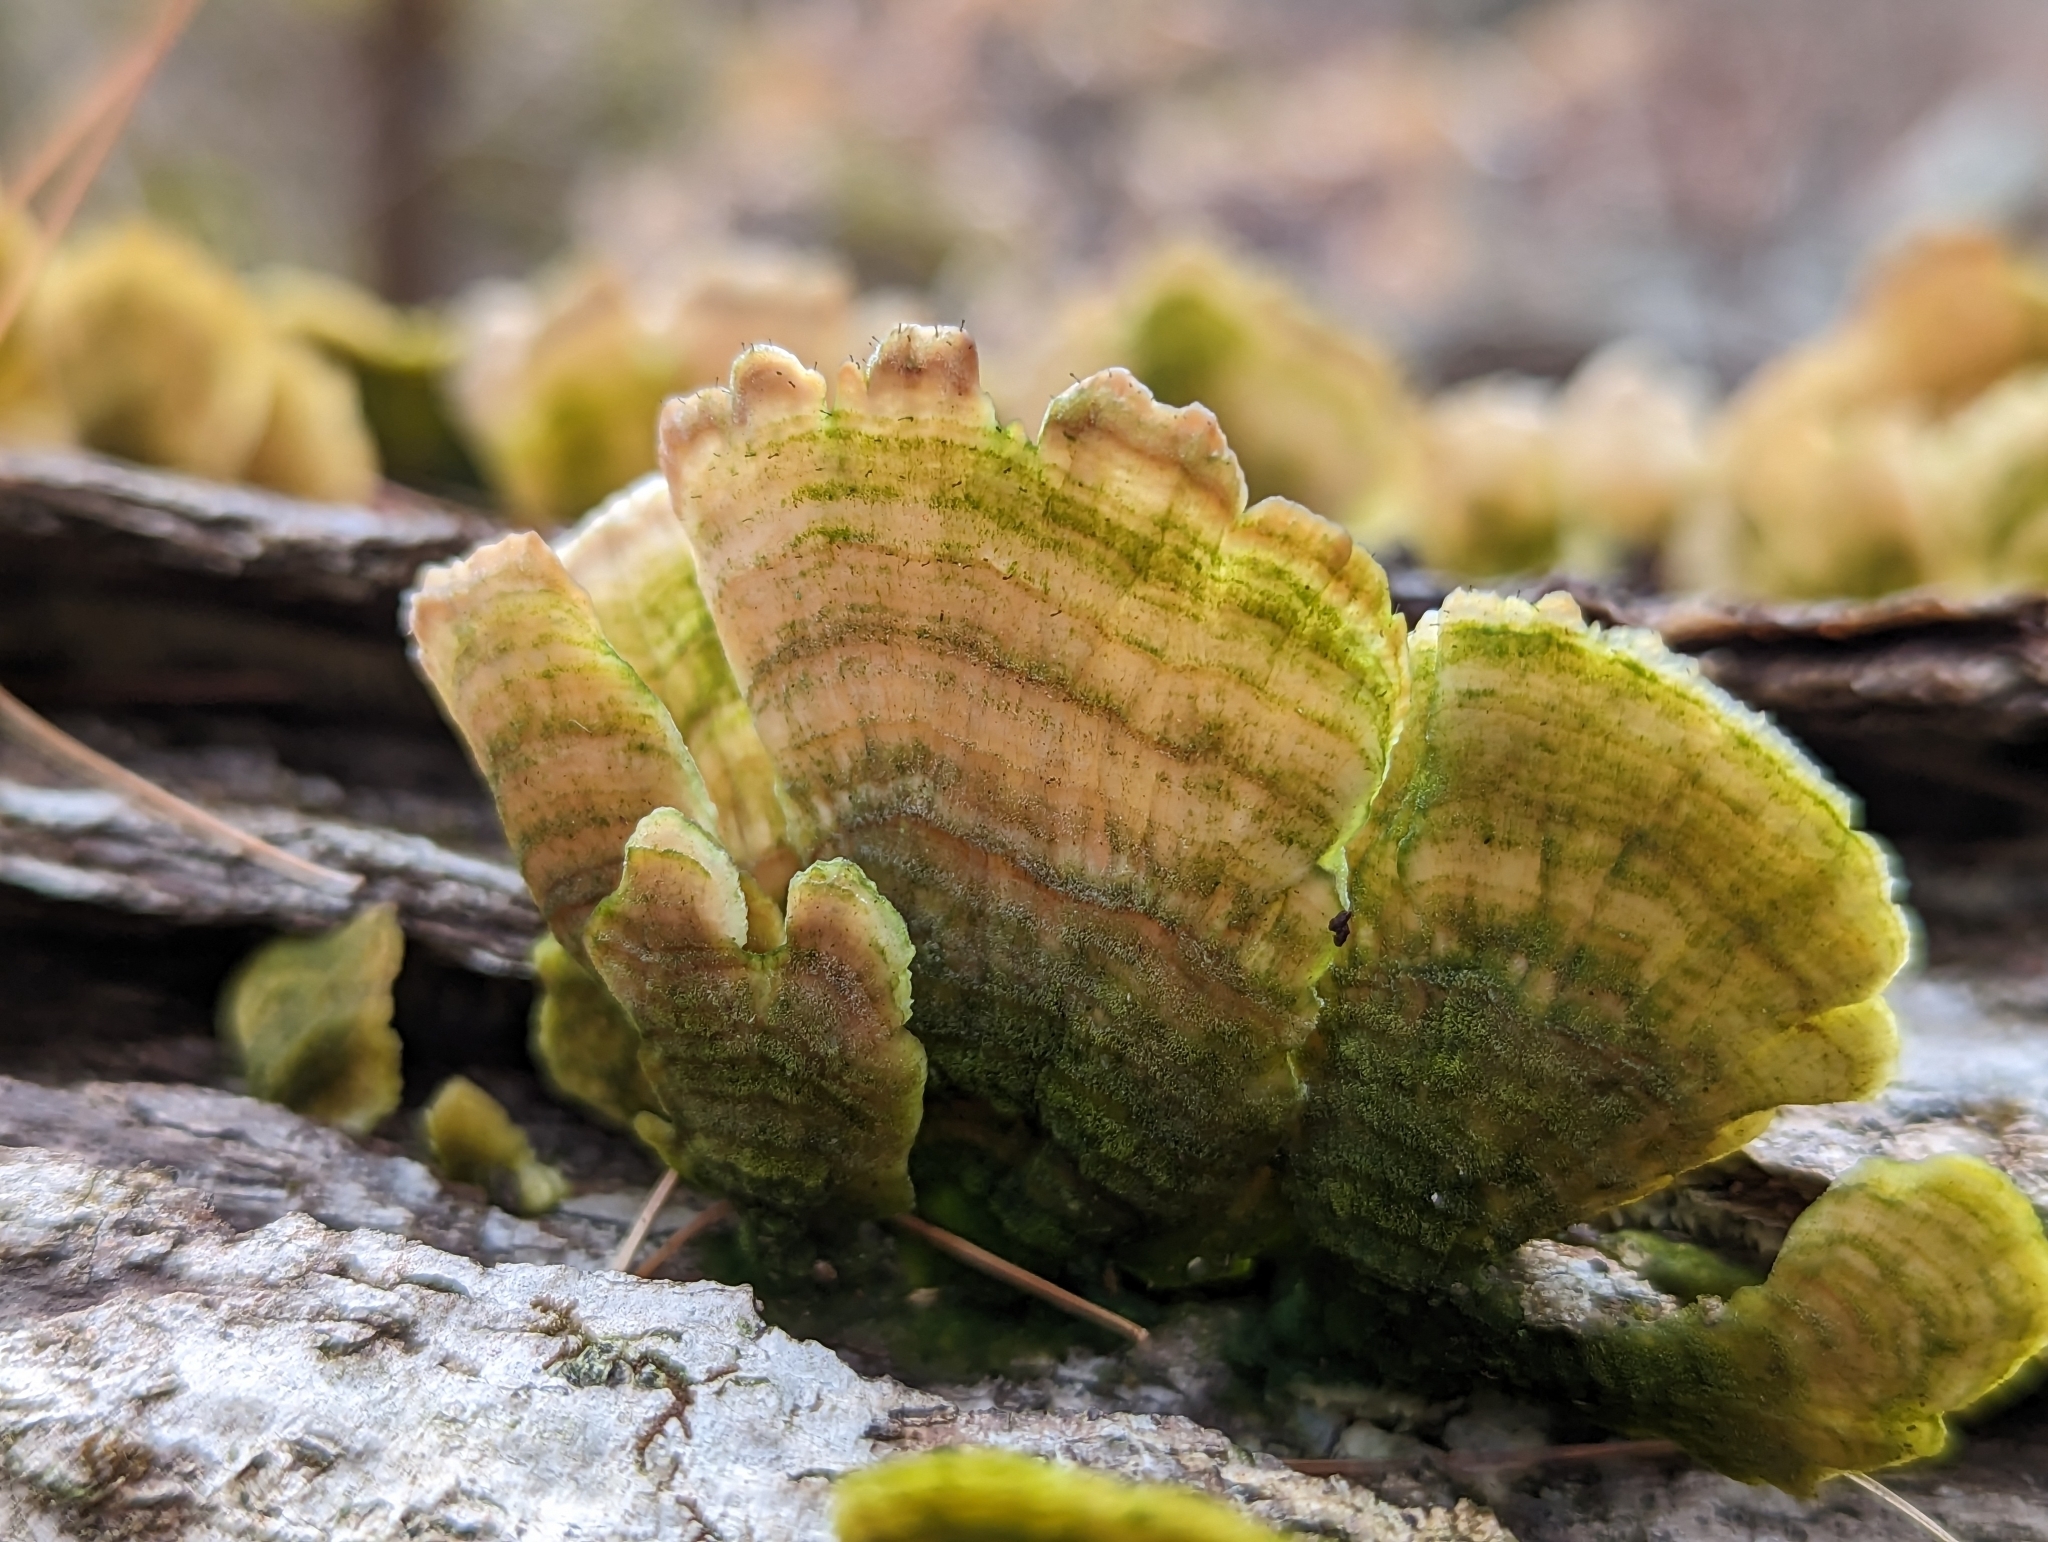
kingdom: Fungi
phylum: Basidiomycota
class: Agaricomycetes
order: Hymenochaetales
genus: Trichaptum
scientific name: Trichaptum biforme
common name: Violet-toothed polypore
